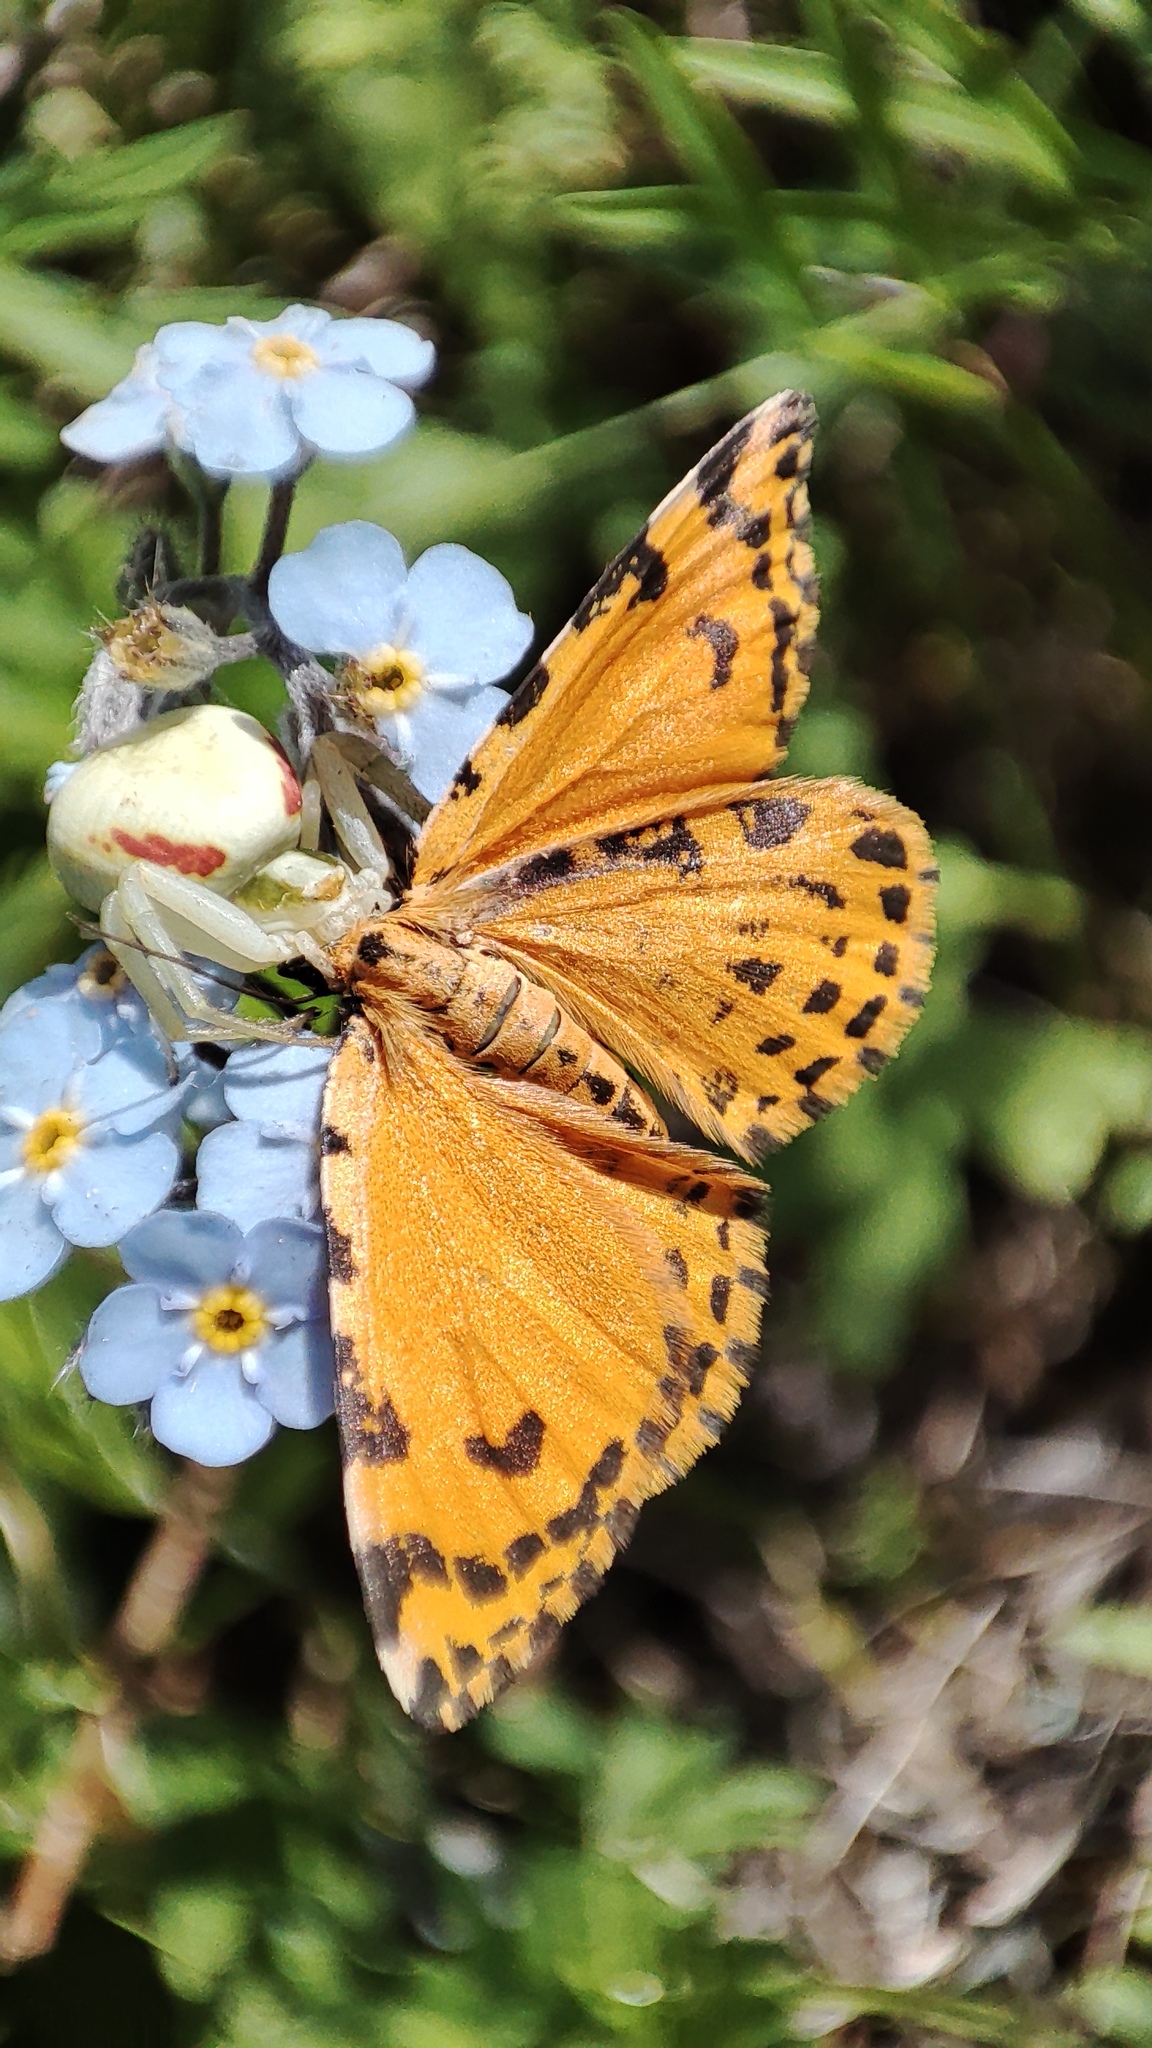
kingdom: Animalia
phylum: Arthropoda
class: Insecta
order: Lepidoptera
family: Geometridae
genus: Stamnodes
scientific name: Stamnodes danilovi
